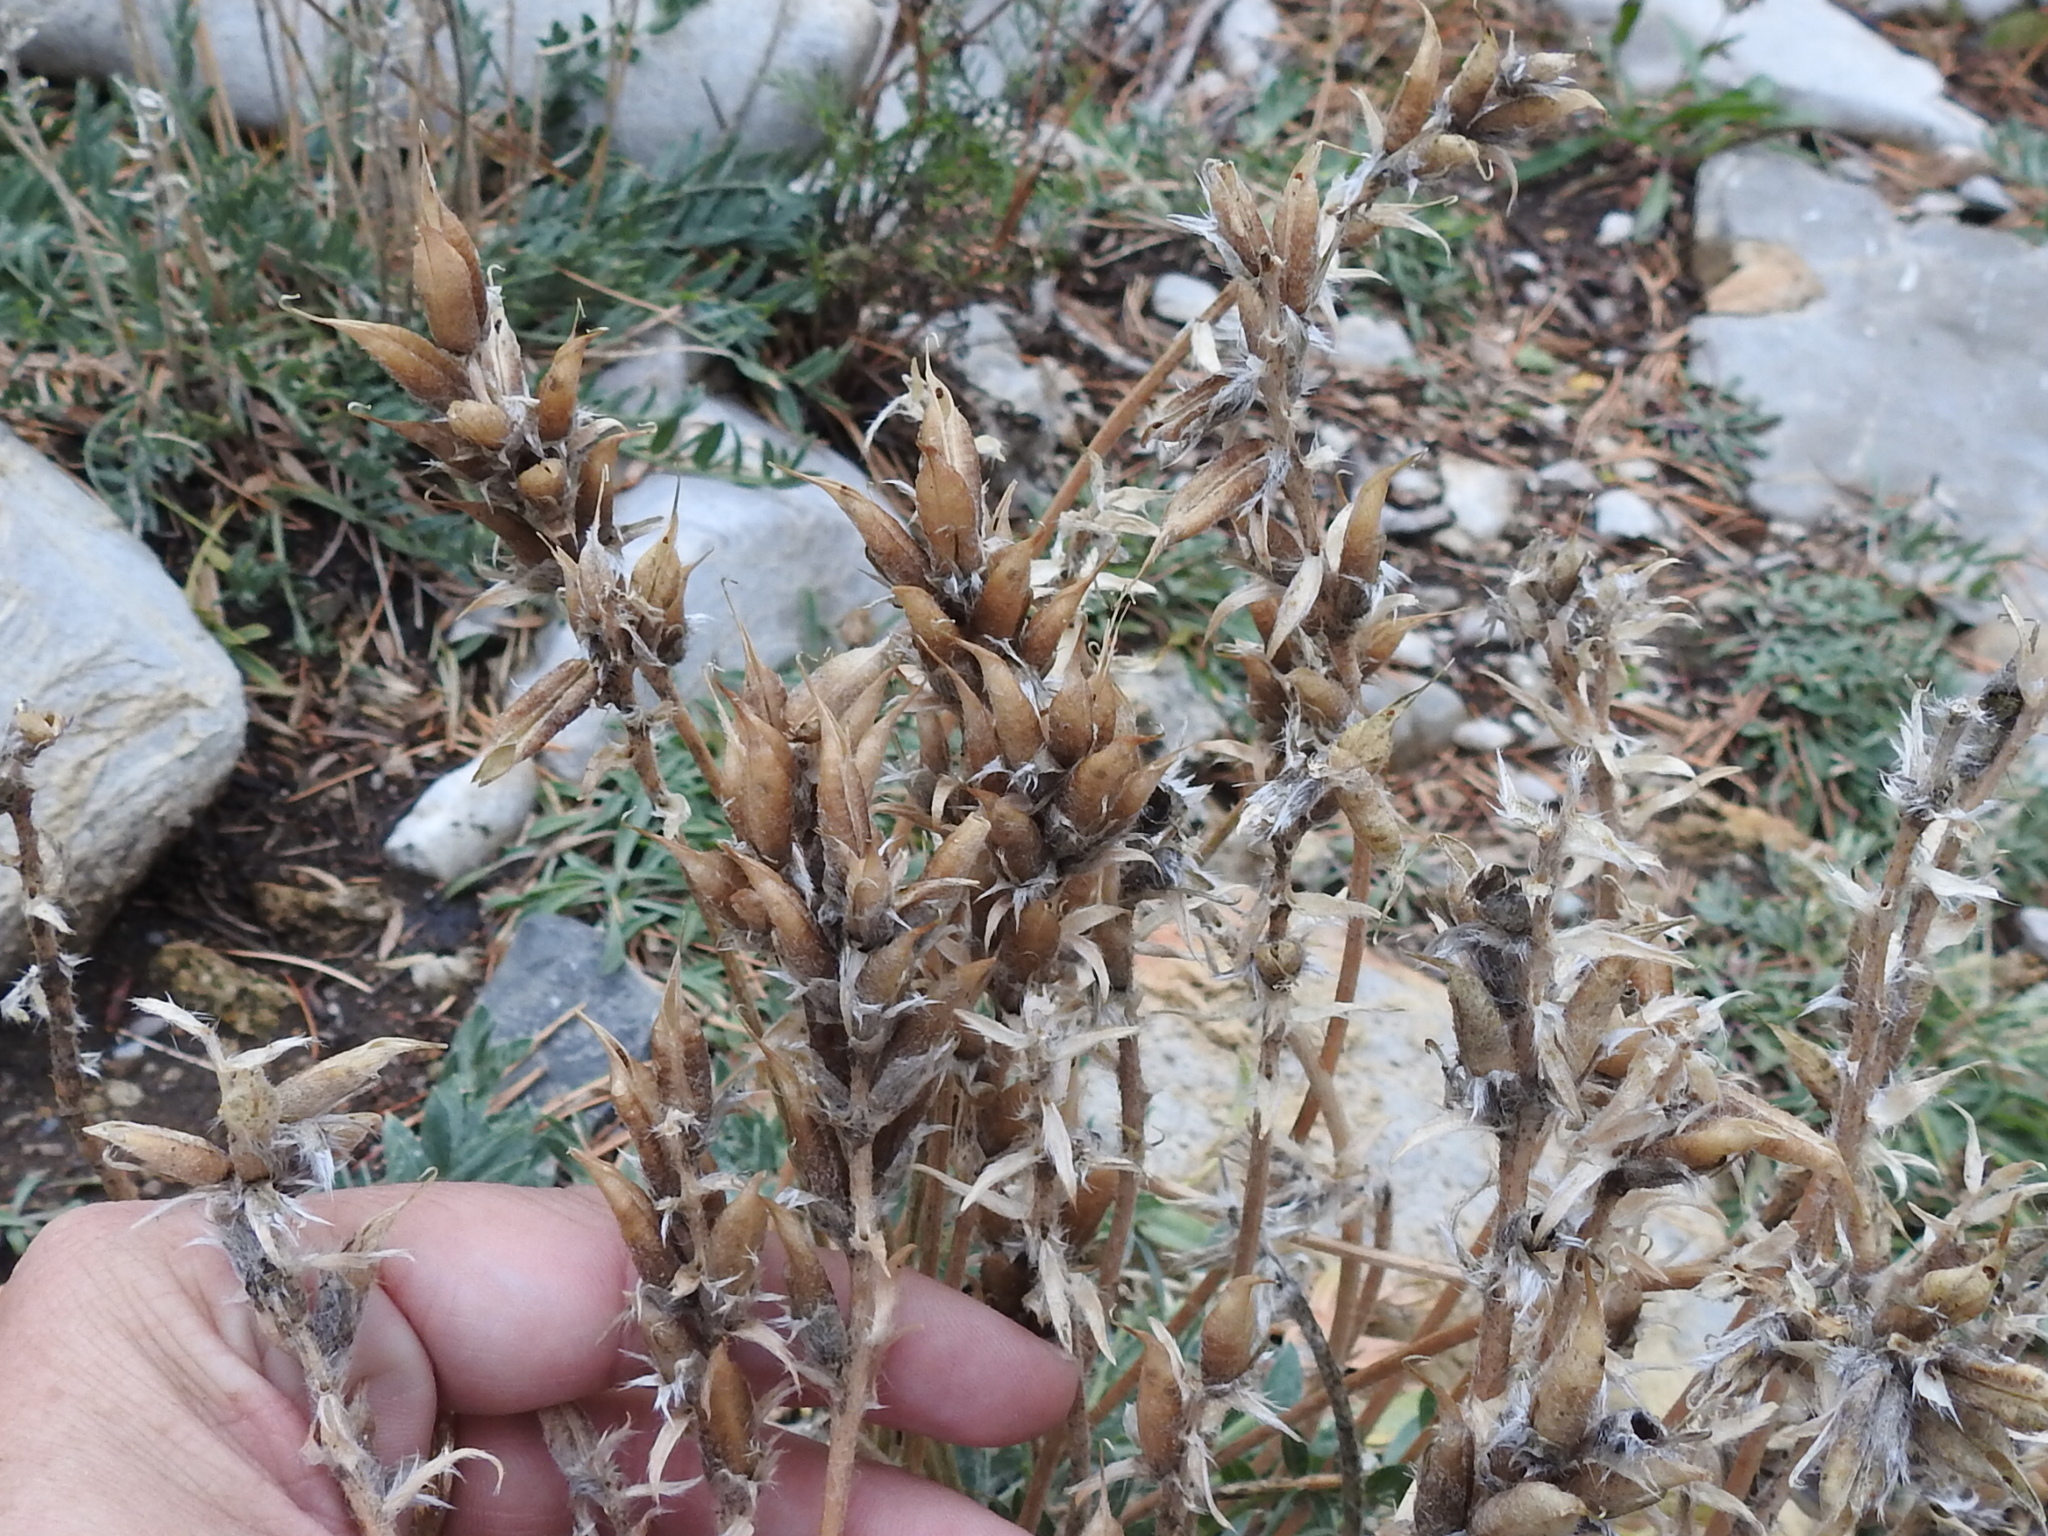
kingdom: Plantae
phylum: Tracheophyta
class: Magnoliopsida
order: Fabales
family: Fabaceae
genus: Oxytropis
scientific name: Oxytropis lambertii
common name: Purple locoweed
